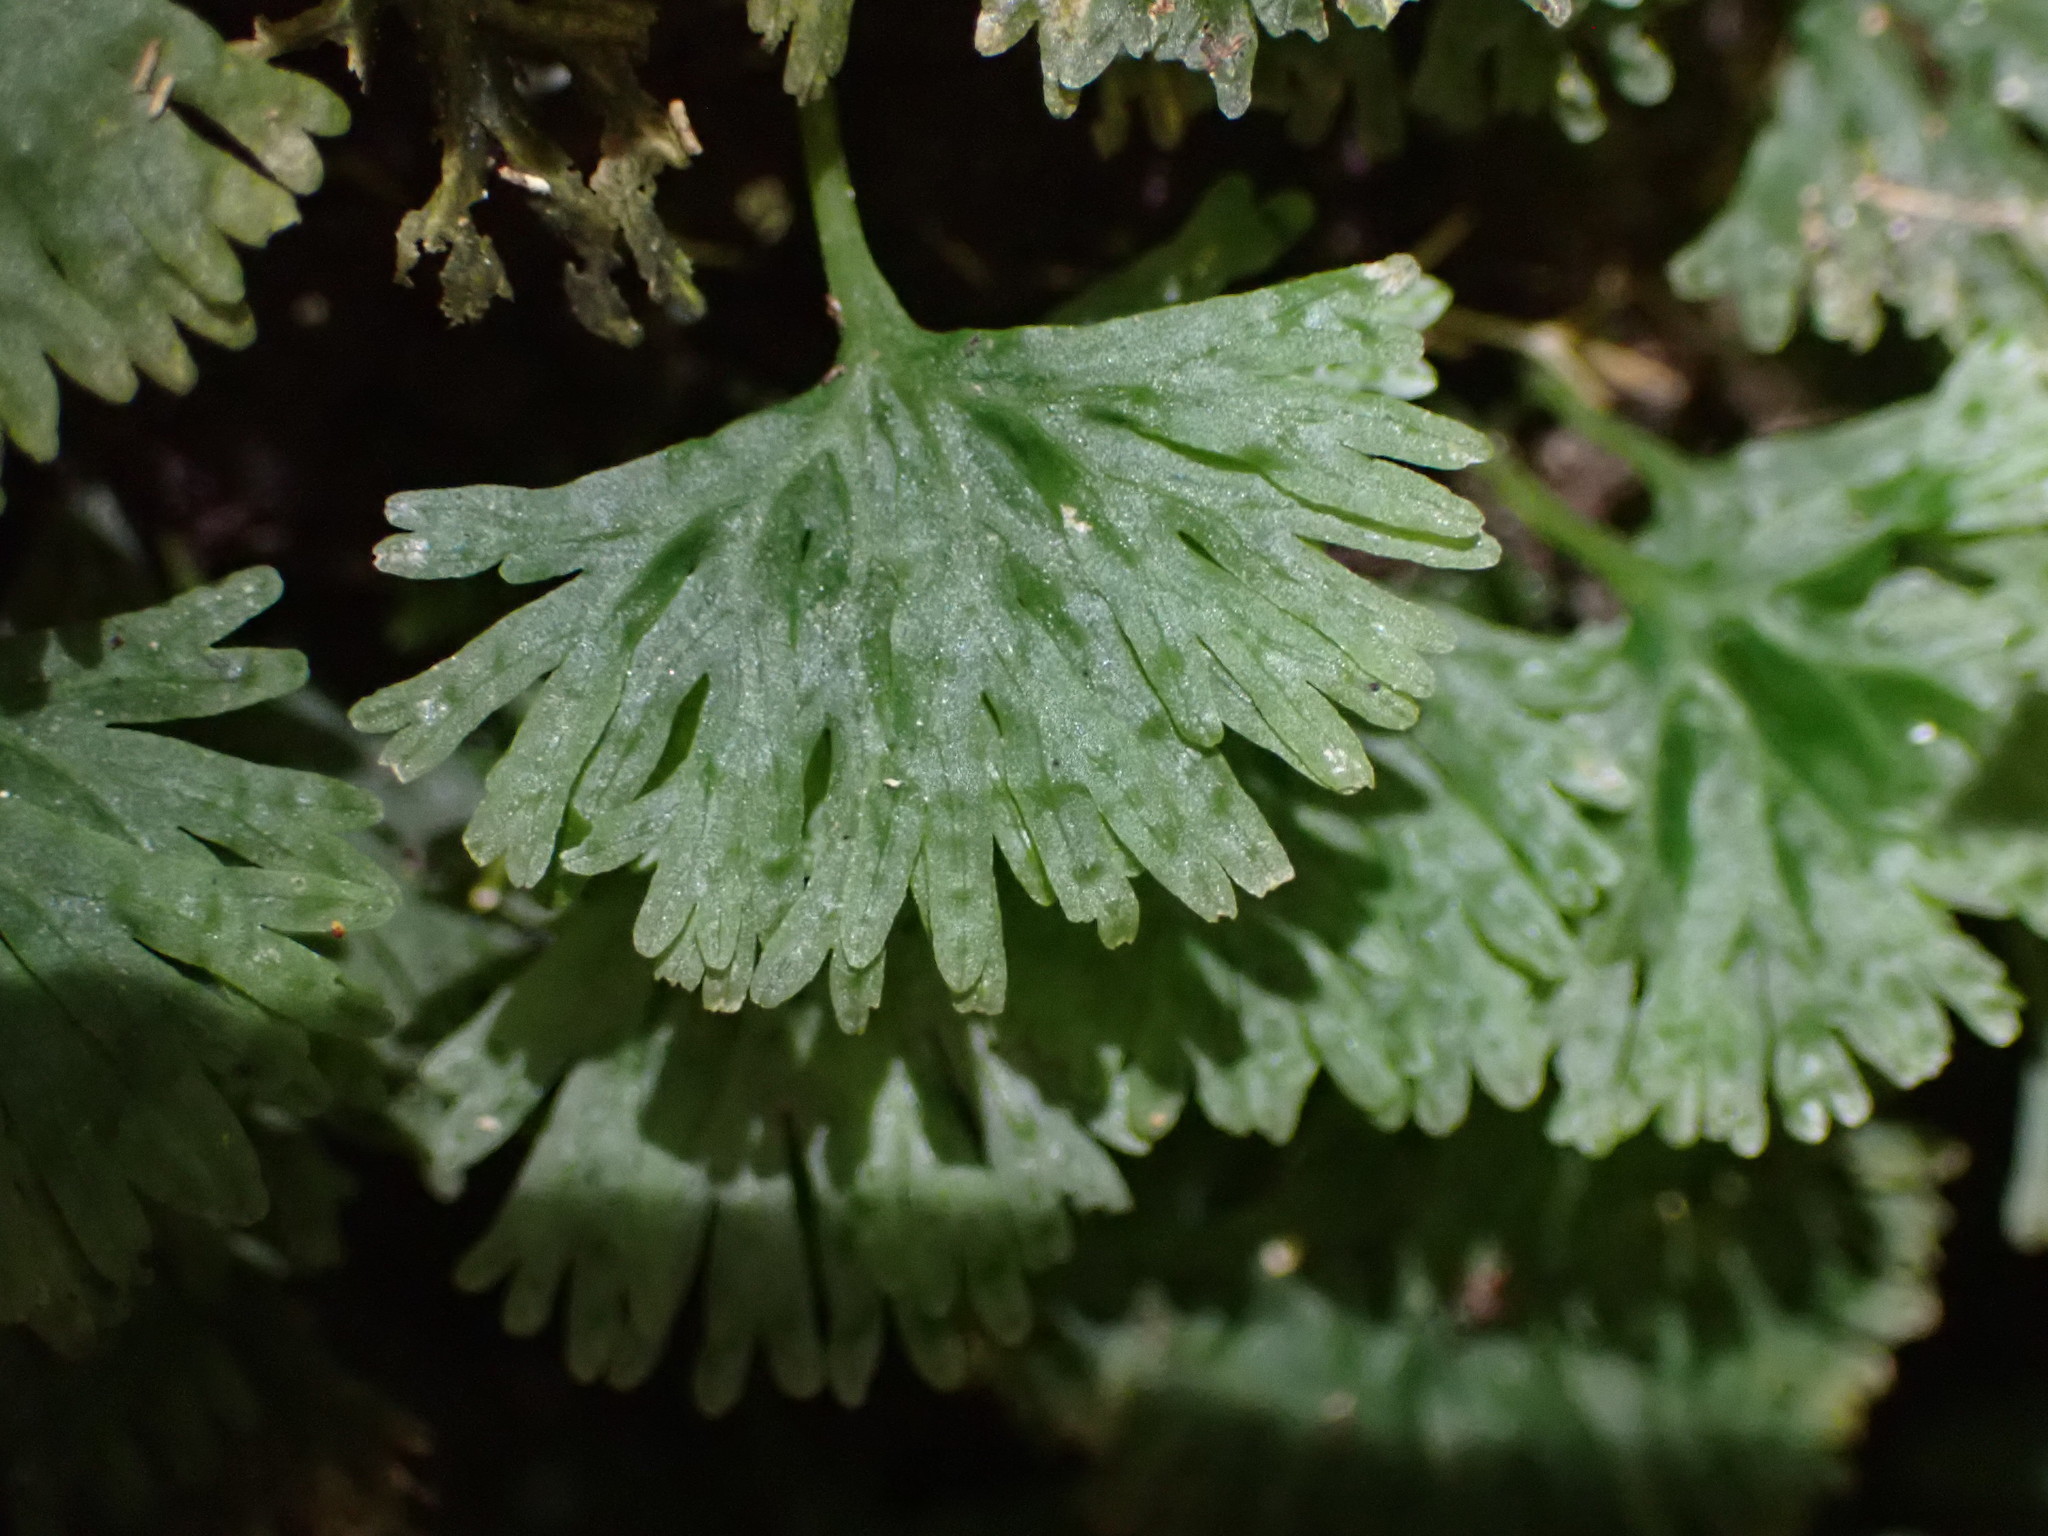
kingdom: Plantae
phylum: Marchantiophyta
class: Jungermanniopsida
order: Pallaviciniales
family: Hymenophytaceae
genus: Hymenophyton
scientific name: Hymenophyton leptopodum
